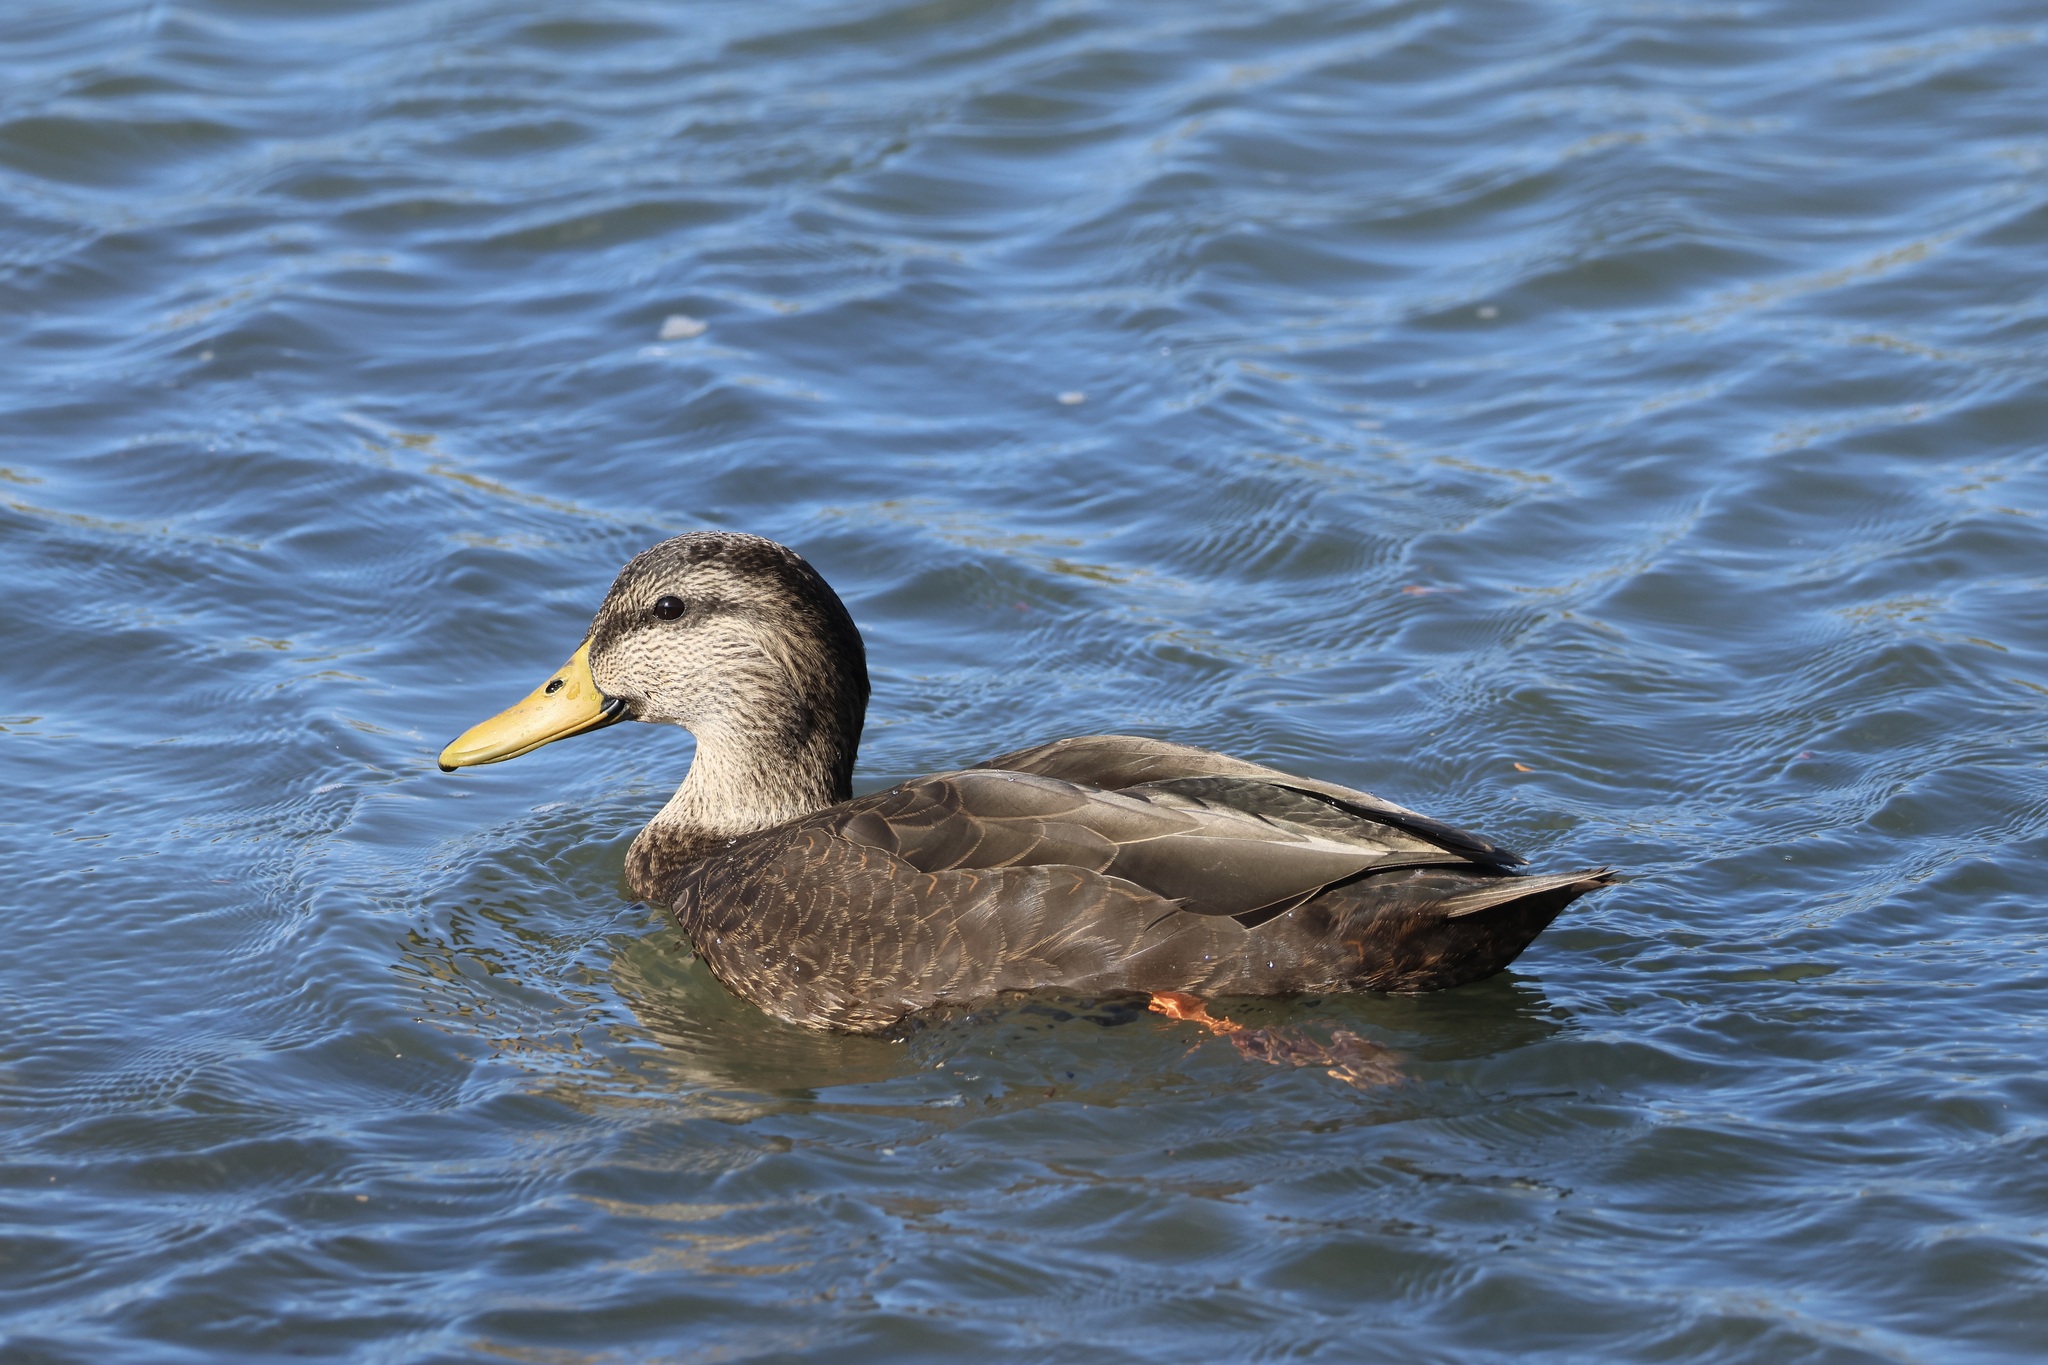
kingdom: Animalia
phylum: Chordata
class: Aves
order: Anseriformes
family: Anatidae
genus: Anas
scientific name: Anas rubripes
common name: American black duck
